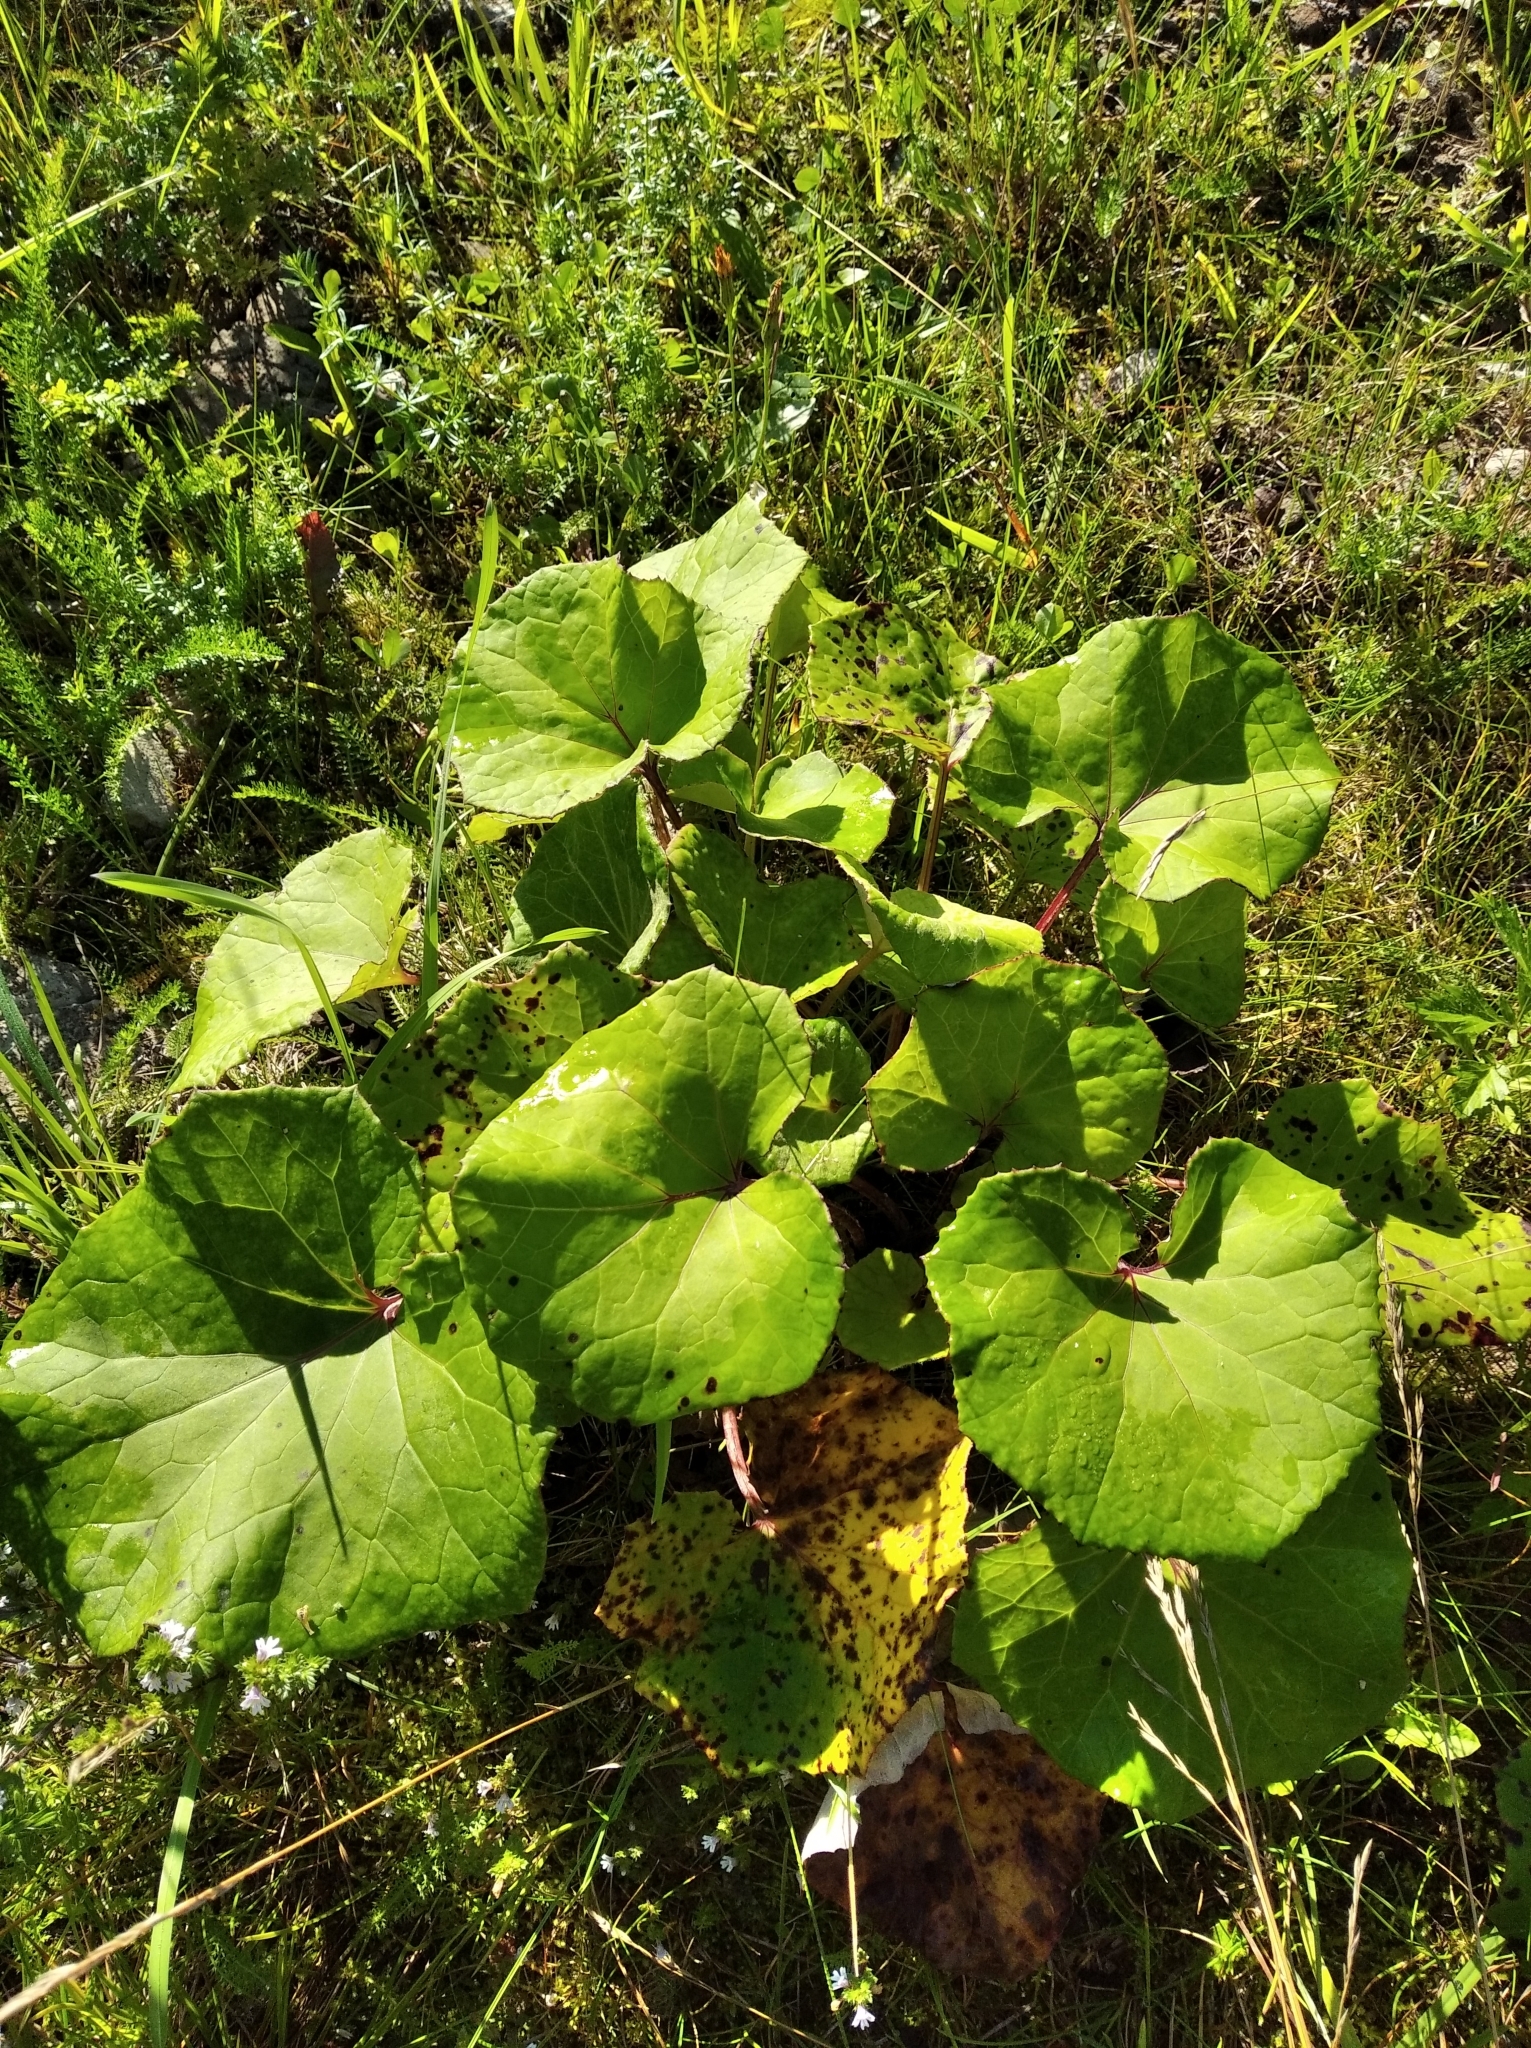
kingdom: Plantae
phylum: Tracheophyta
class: Magnoliopsida
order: Asterales
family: Asteraceae
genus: Tussilago
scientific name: Tussilago farfara
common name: Coltsfoot
